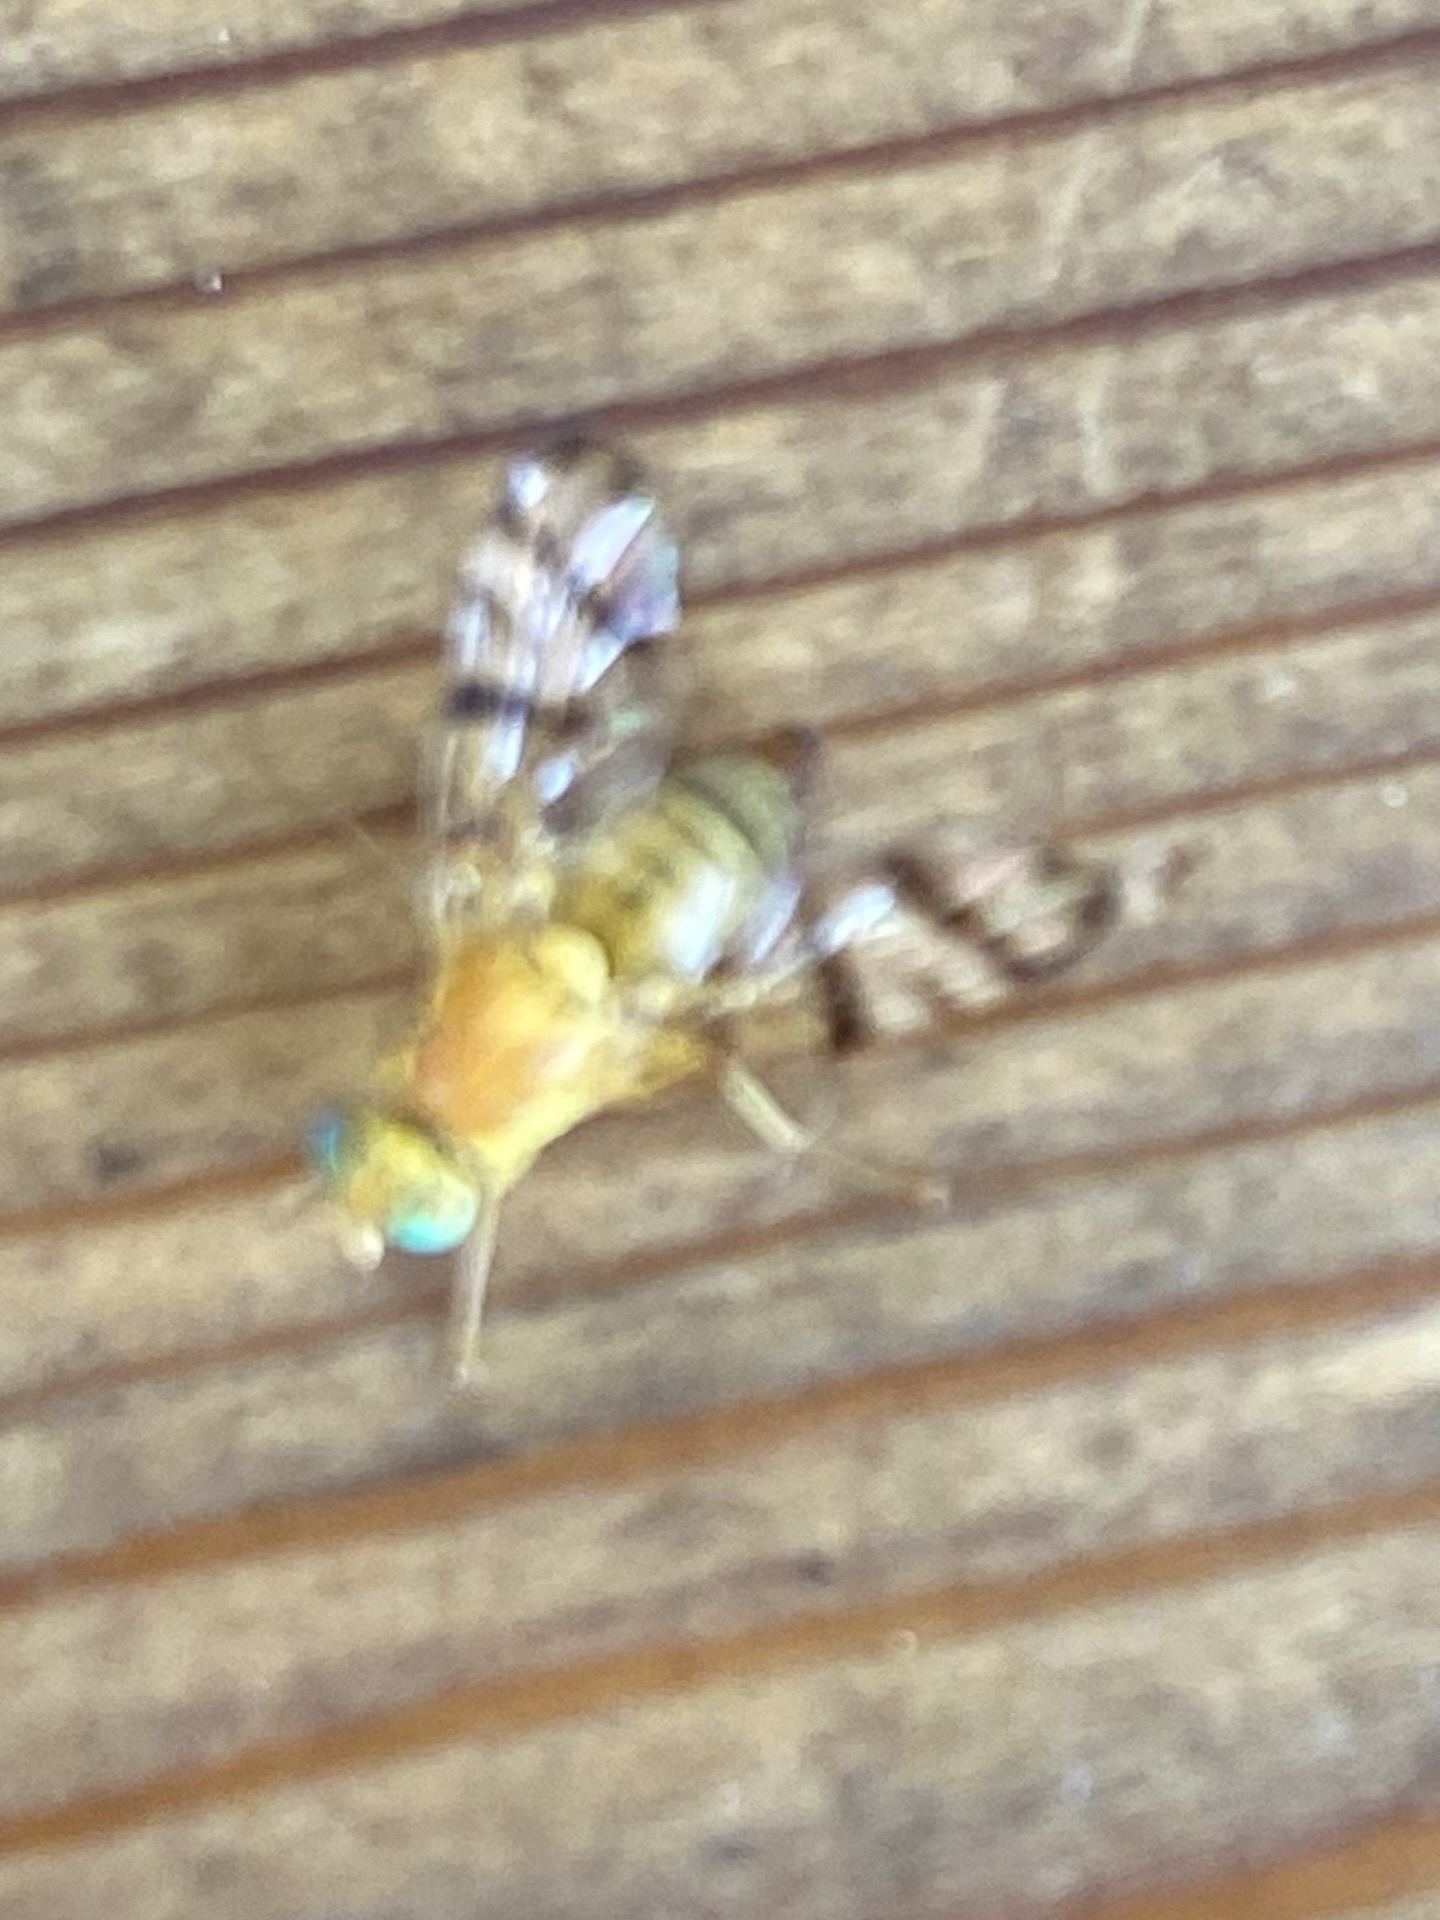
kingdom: Animalia
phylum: Arthropoda
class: Insecta
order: Diptera
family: Tephritidae
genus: Rhagoletis
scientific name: Rhagoletis basiola
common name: Rose hip fly
